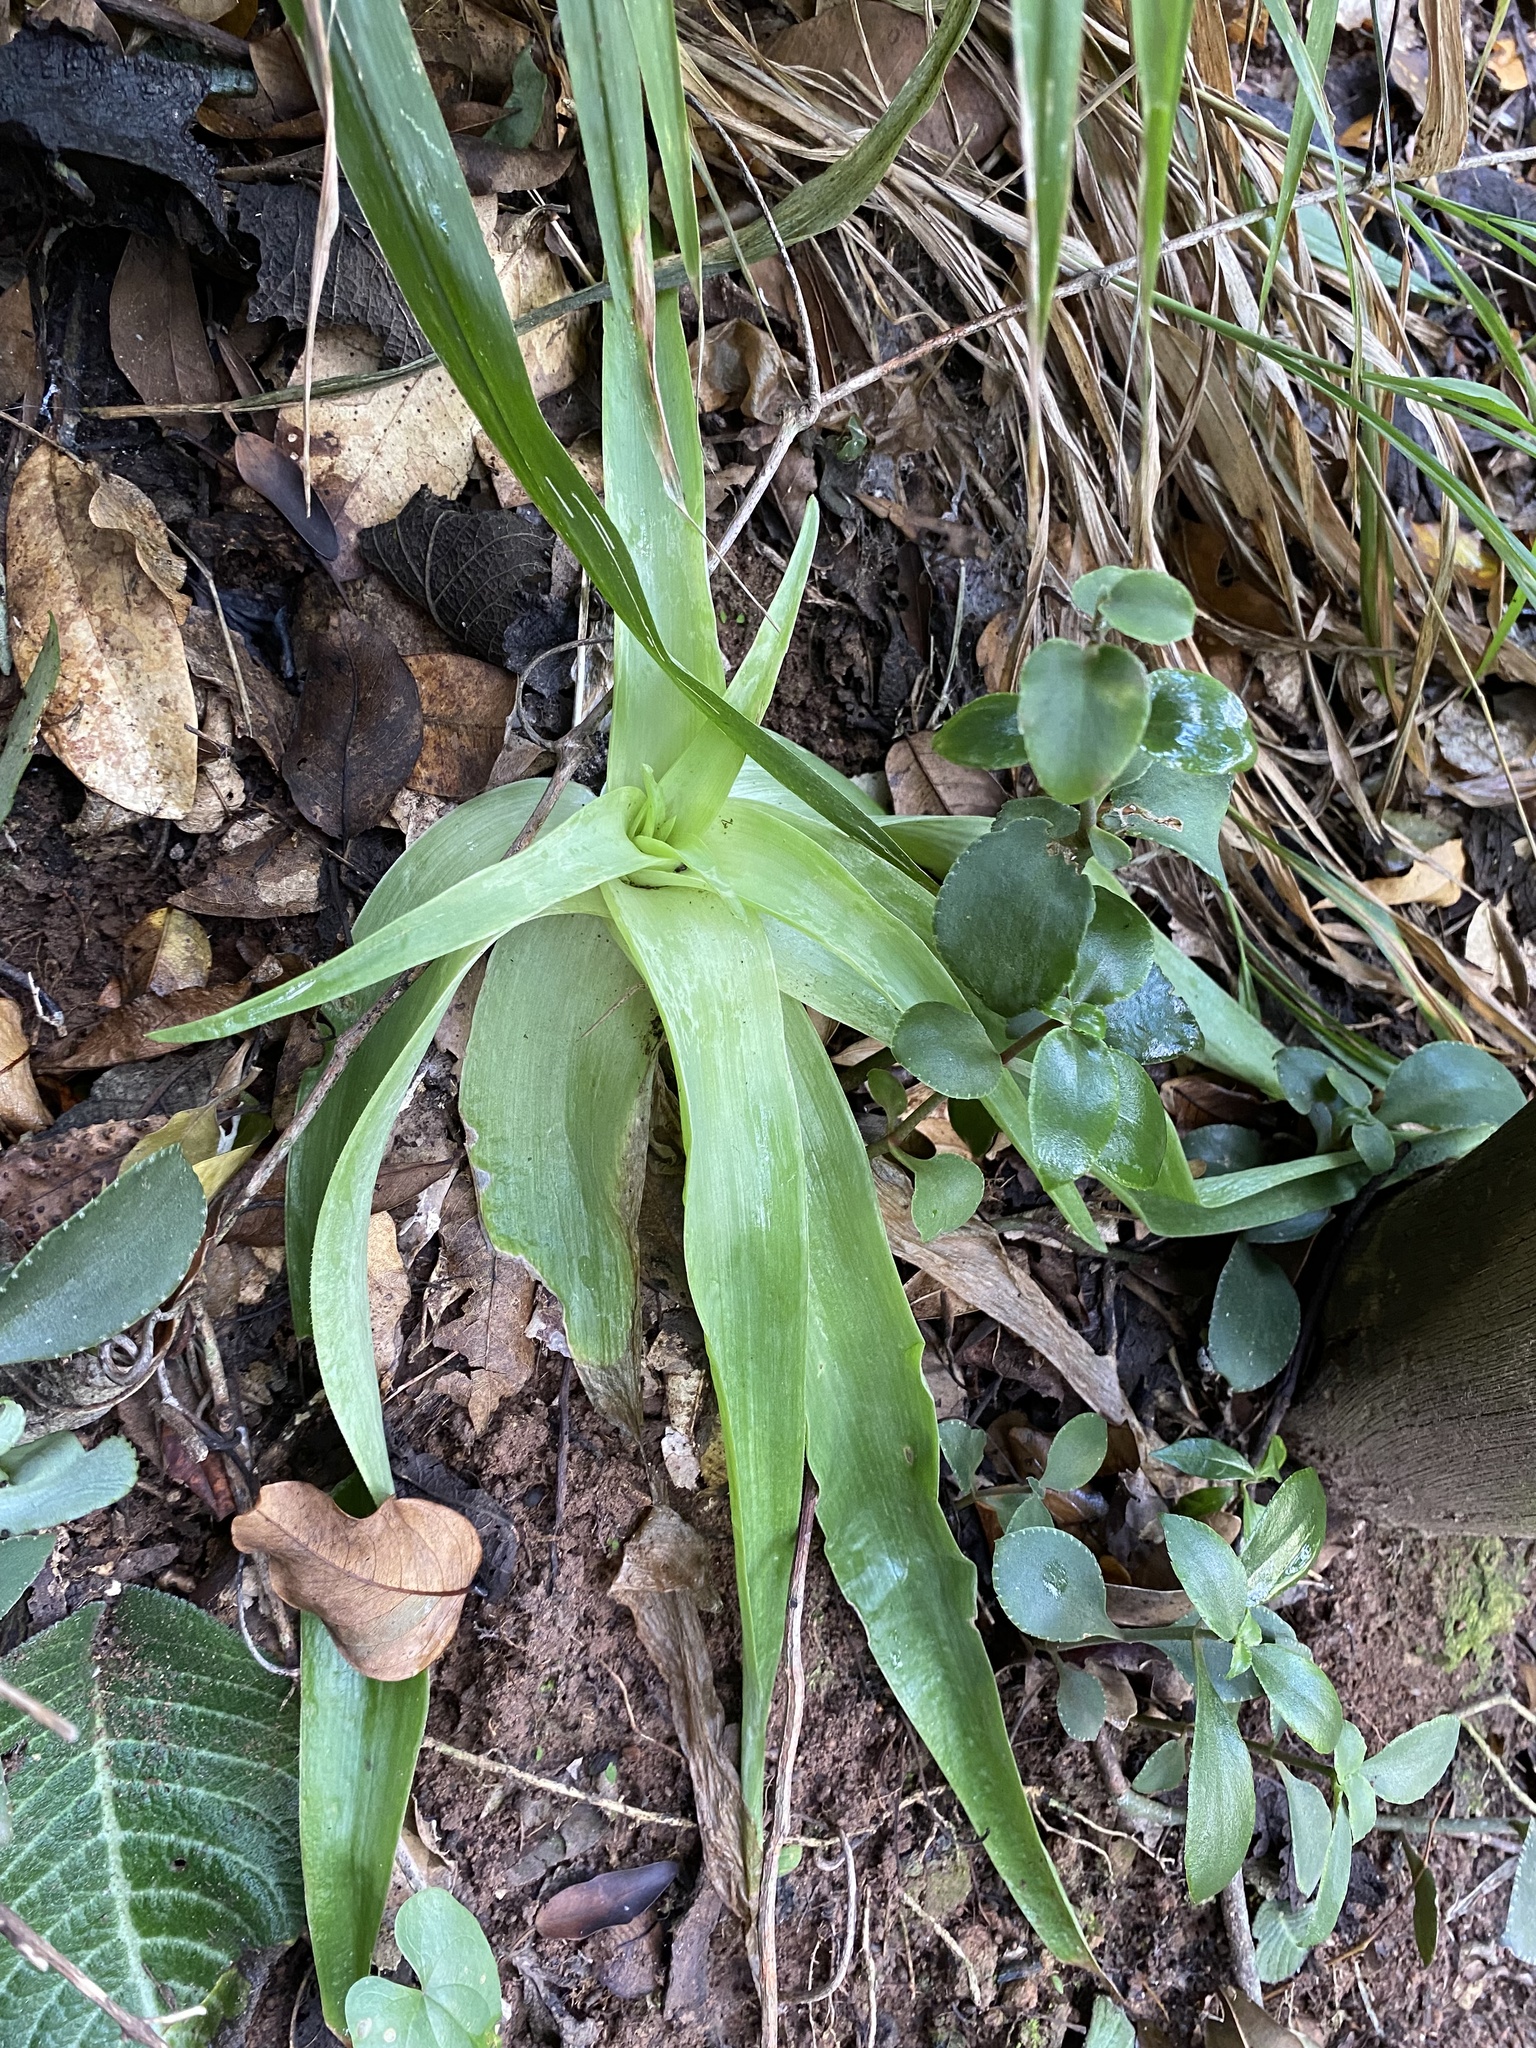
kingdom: Plantae
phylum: Tracheophyta
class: Liliopsida
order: Asparagales
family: Asphodelaceae
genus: Bulbine
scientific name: Bulbine latifolia
